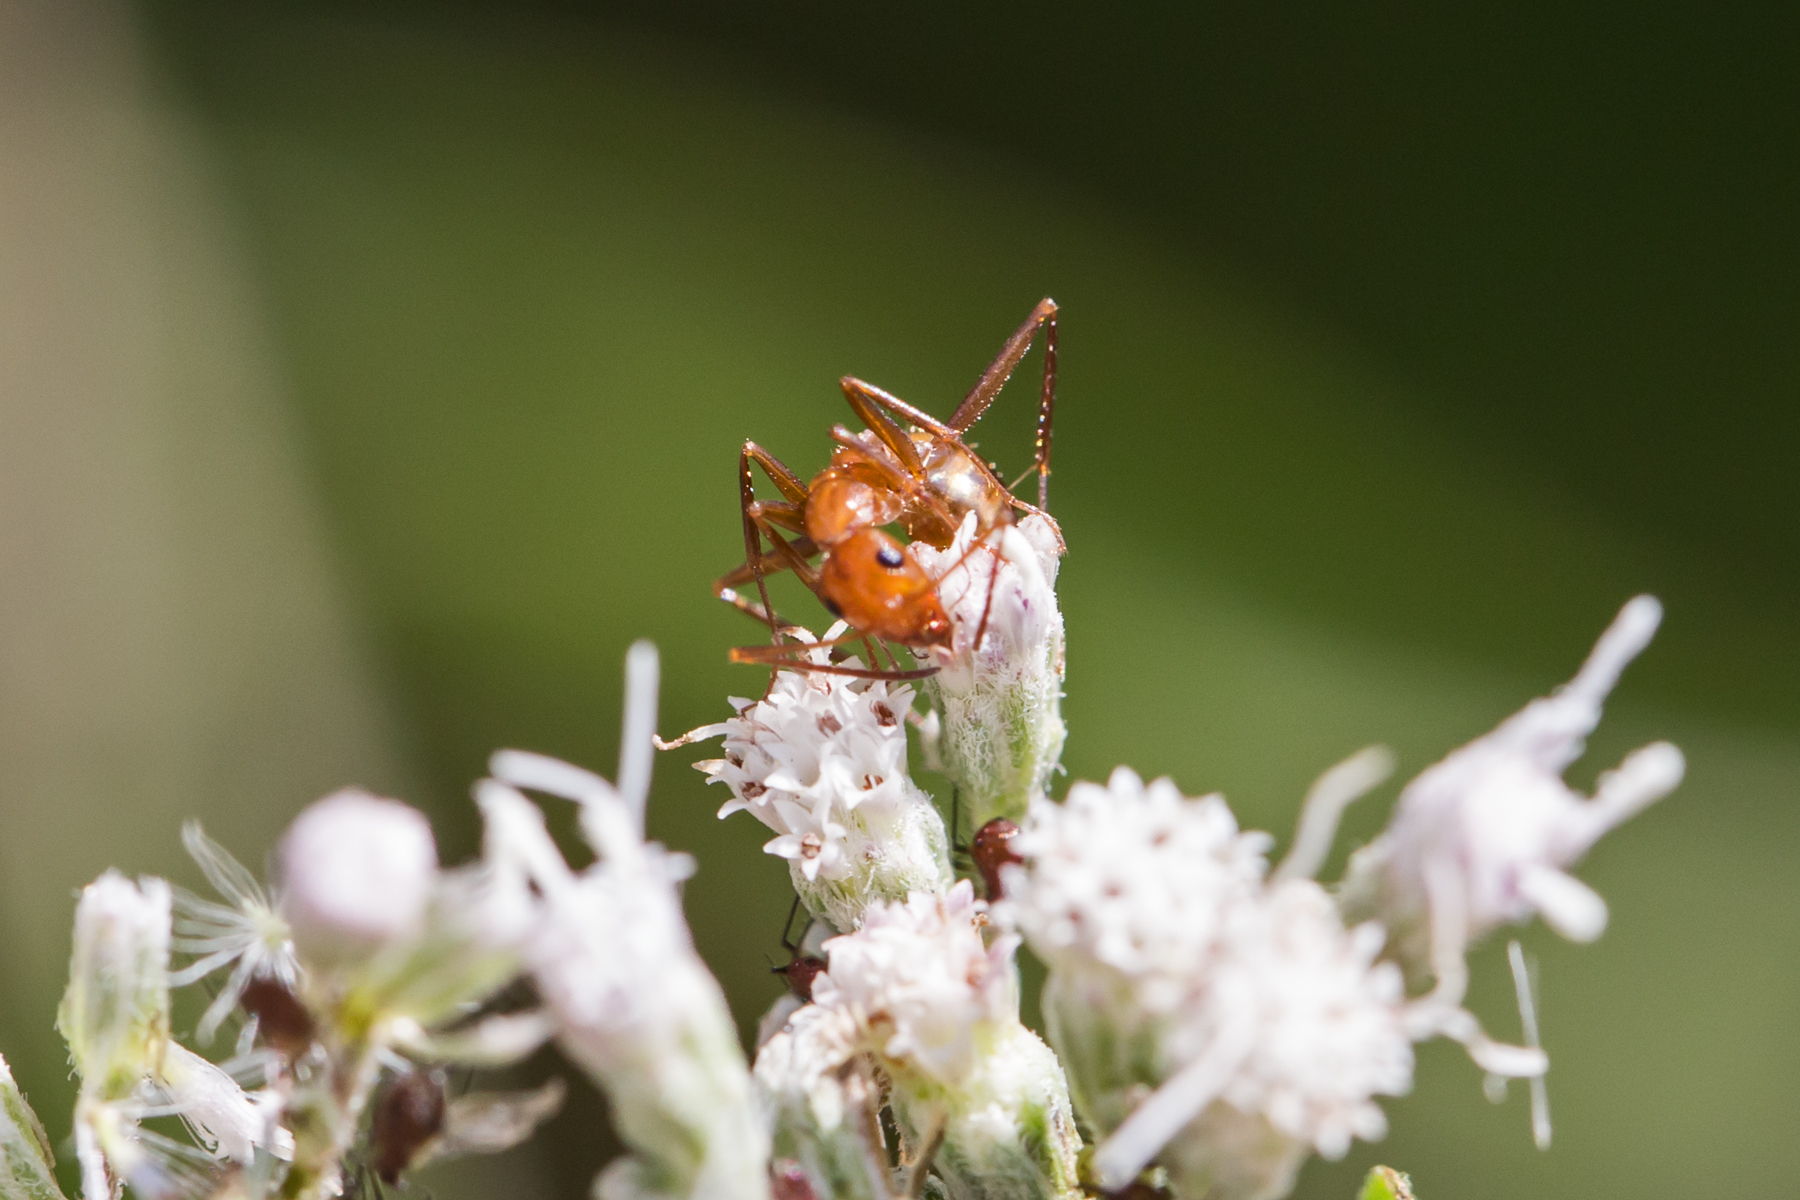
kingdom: Animalia
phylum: Arthropoda
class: Insecta
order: Hymenoptera
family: Formicidae
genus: Formica
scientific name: Formica incerta
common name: Uncertain field ant
